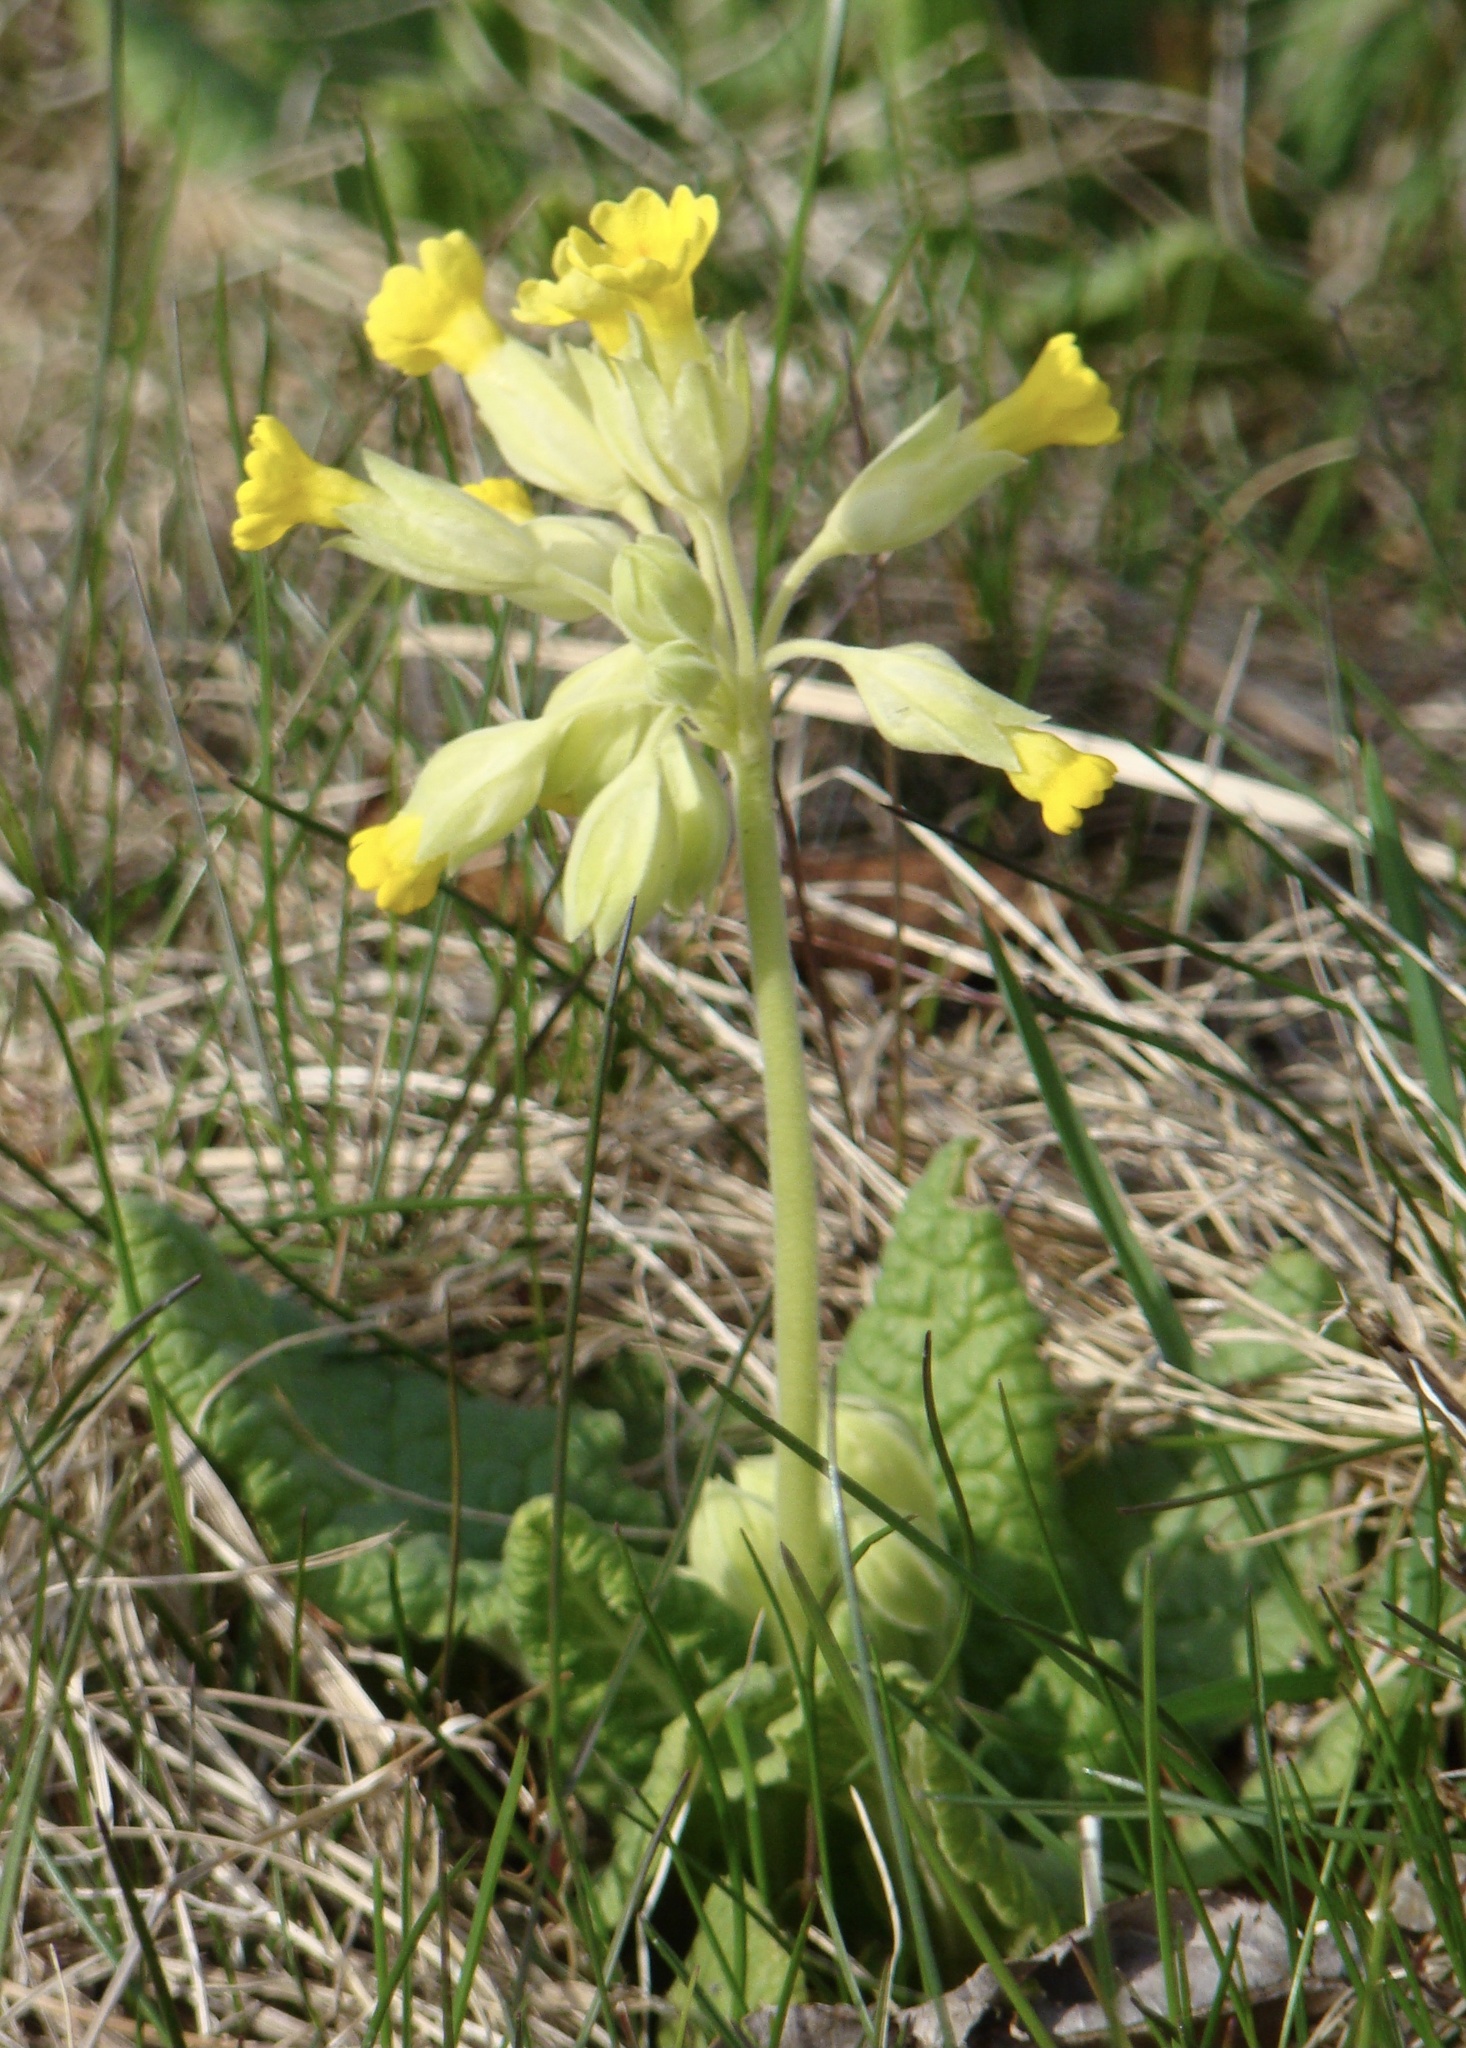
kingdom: Plantae
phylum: Tracheophyta
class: Magnoliopsida
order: Ericales
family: Primulaceae
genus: Primula
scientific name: Primula veris
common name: Cowslip
